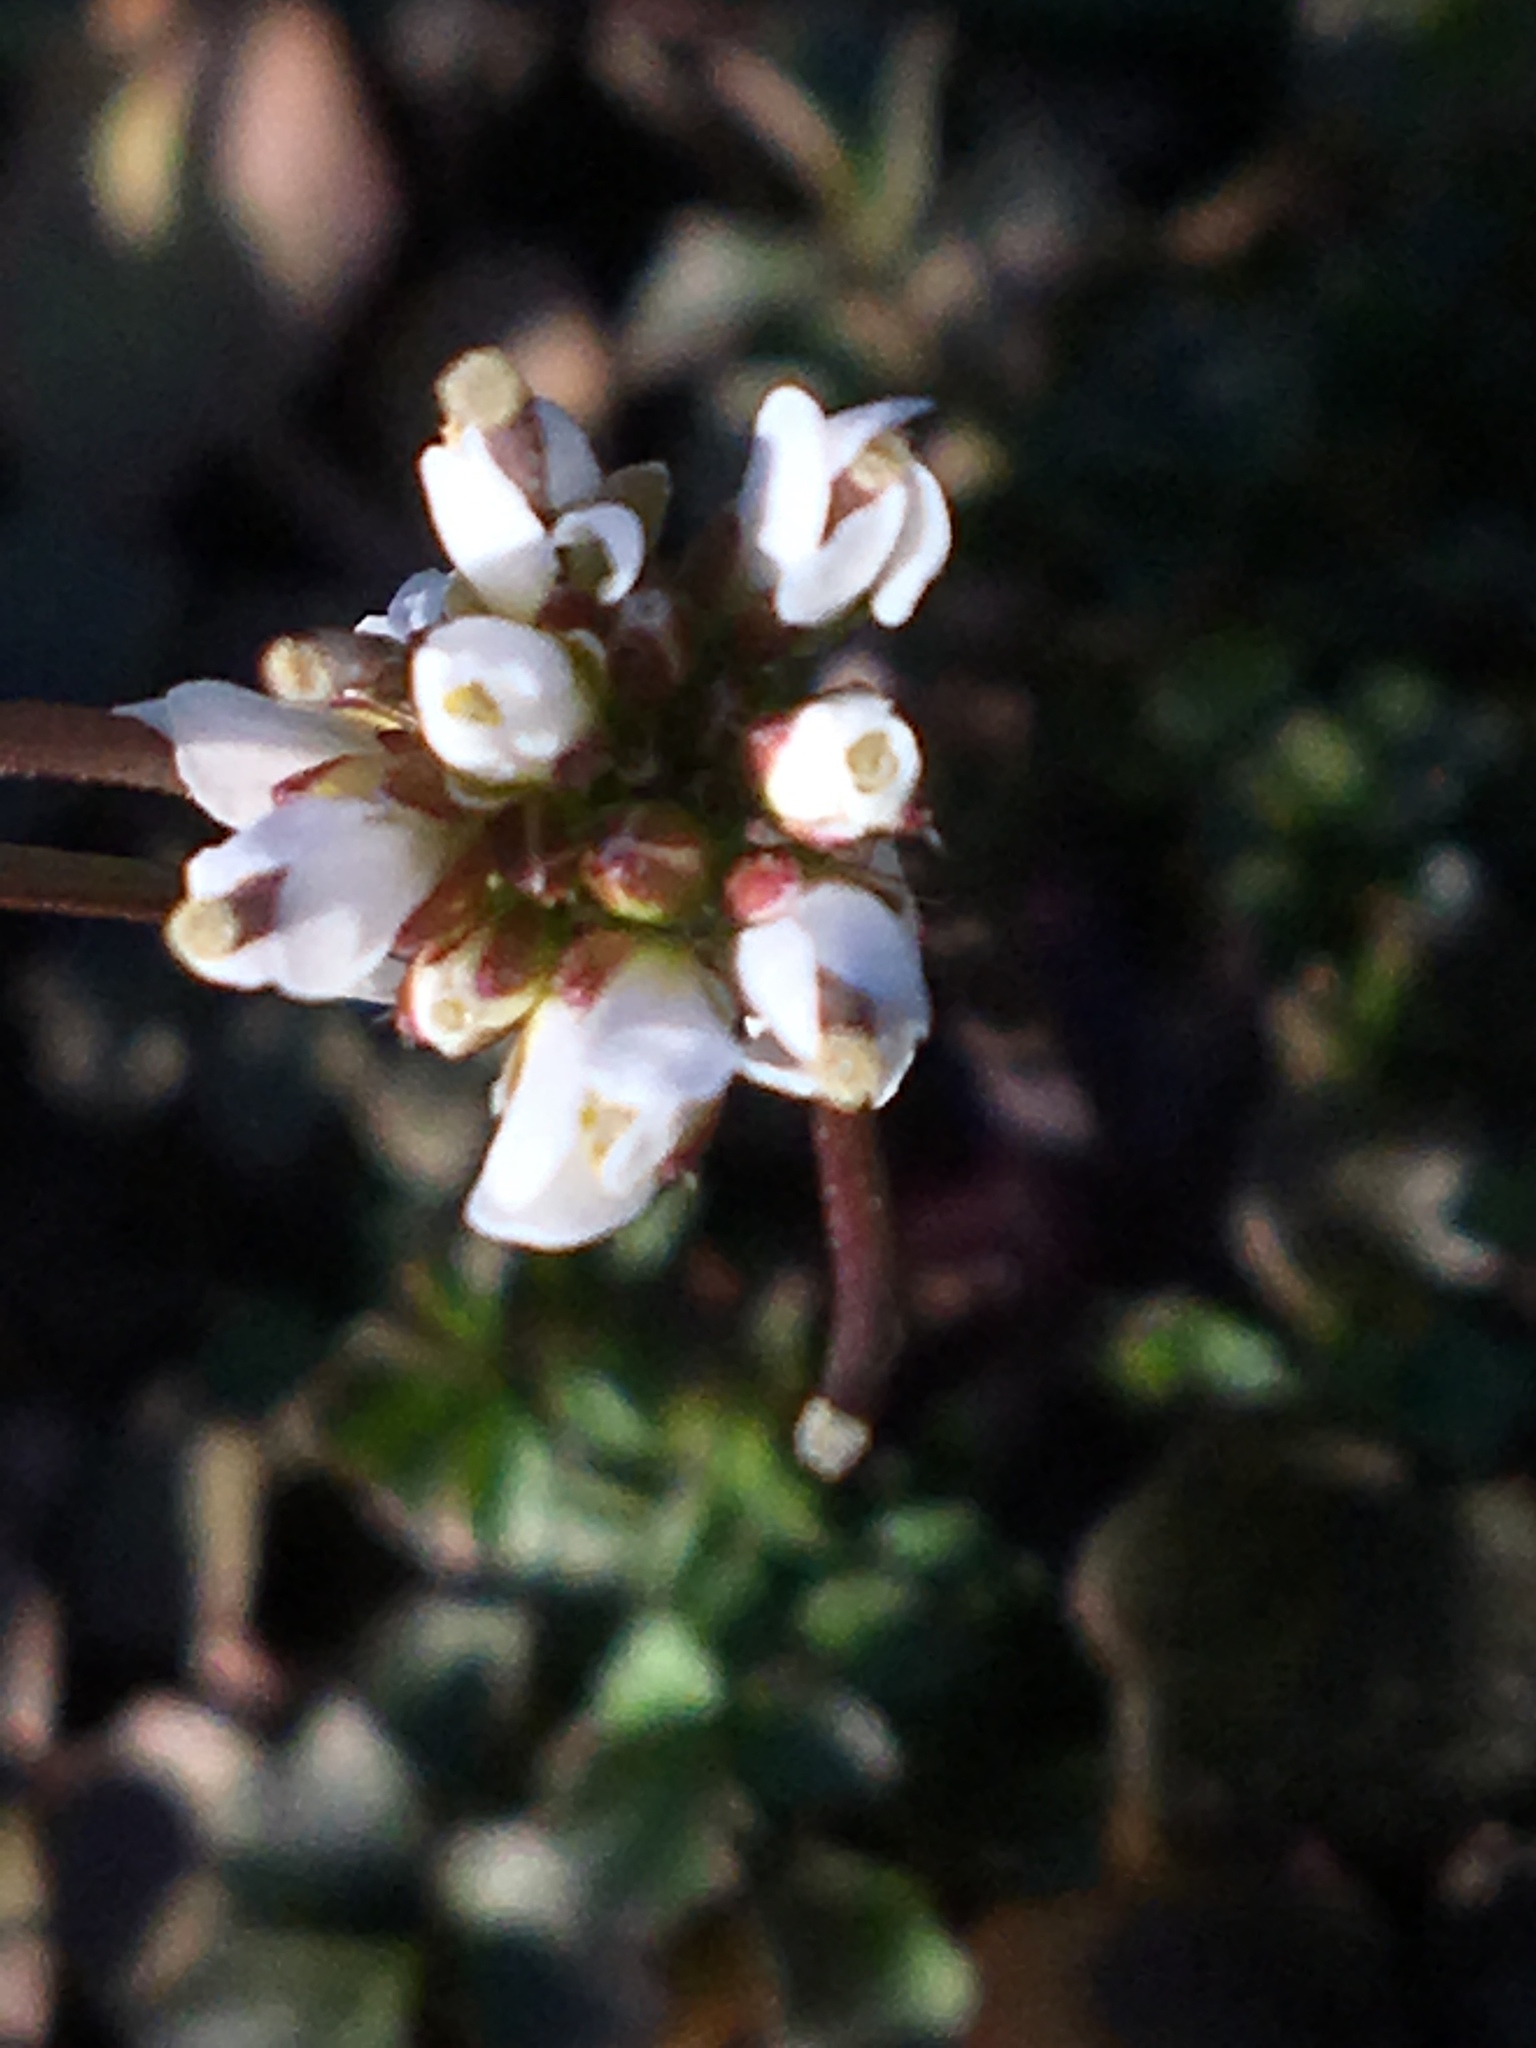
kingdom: Plantae
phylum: Tracheophyta
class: Magnoliopsida
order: Brassicales
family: Brassicaceae
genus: Cardamine
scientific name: Cardamine hirsuta
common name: Hairy bittercress
